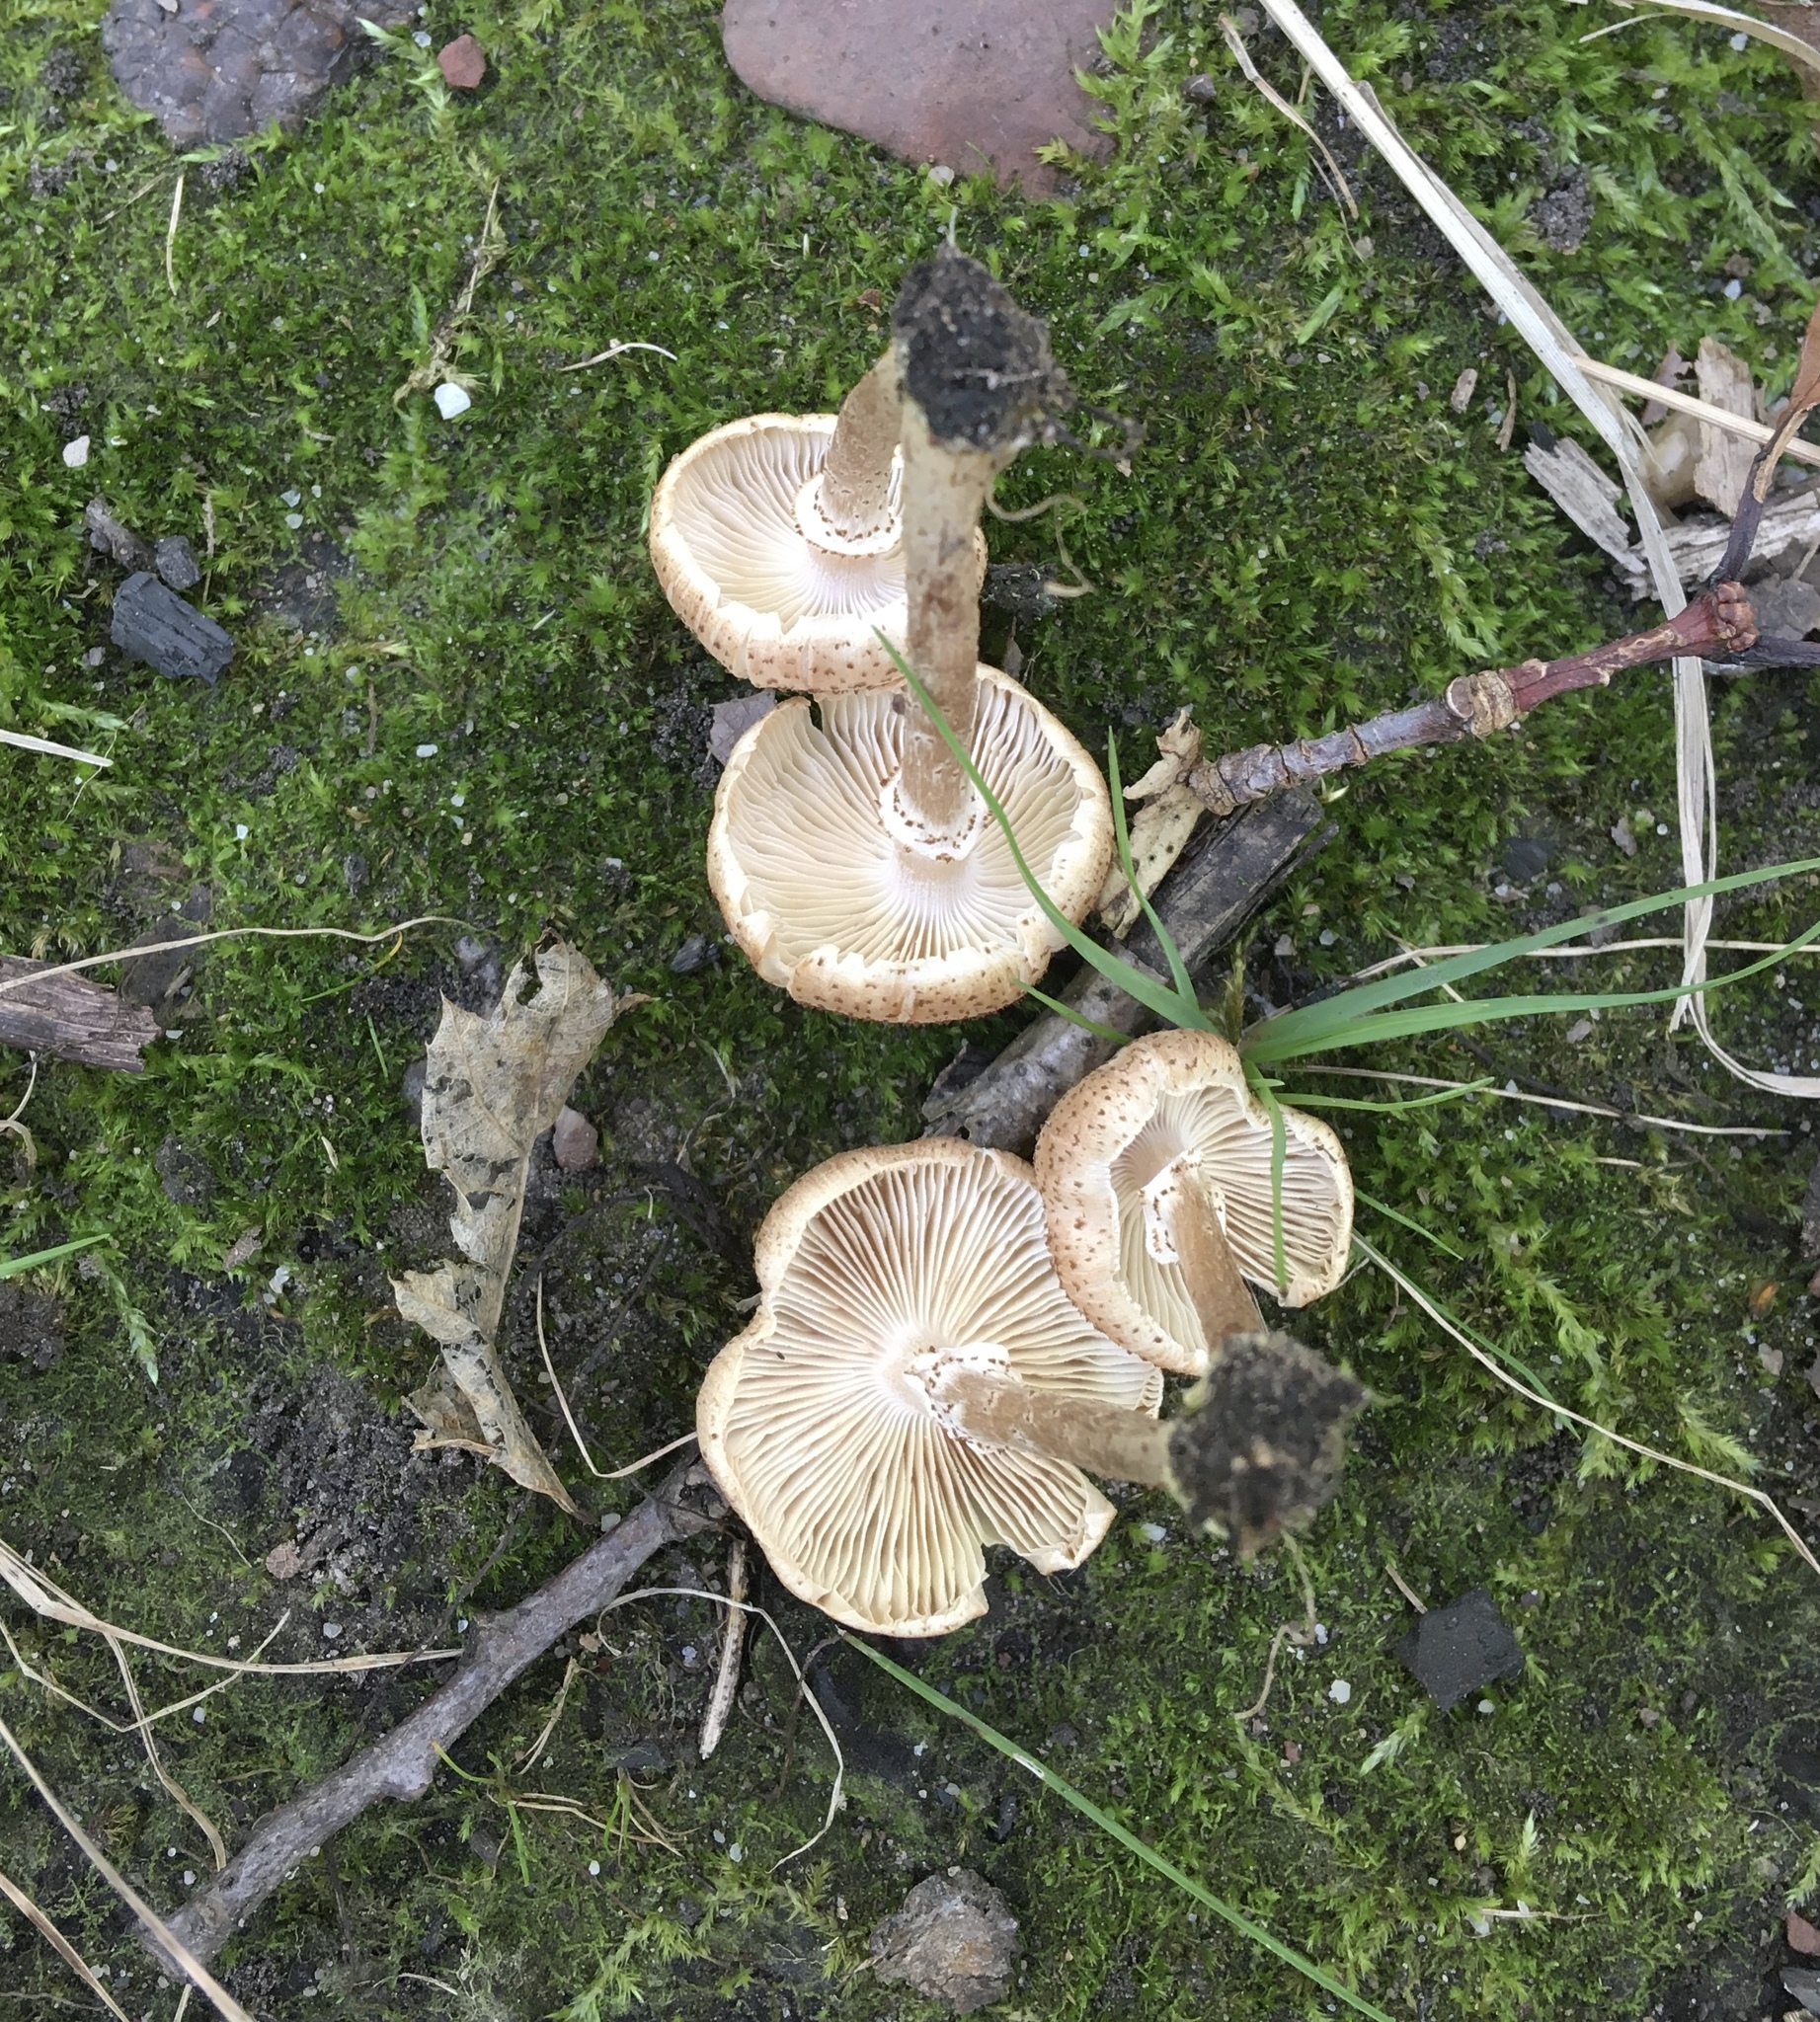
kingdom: Fungi
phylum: Basidiomycota
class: Agaricomycetes
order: Agaricales
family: Physalacriaceae
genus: Armillaria
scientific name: Armillaria sinapina
